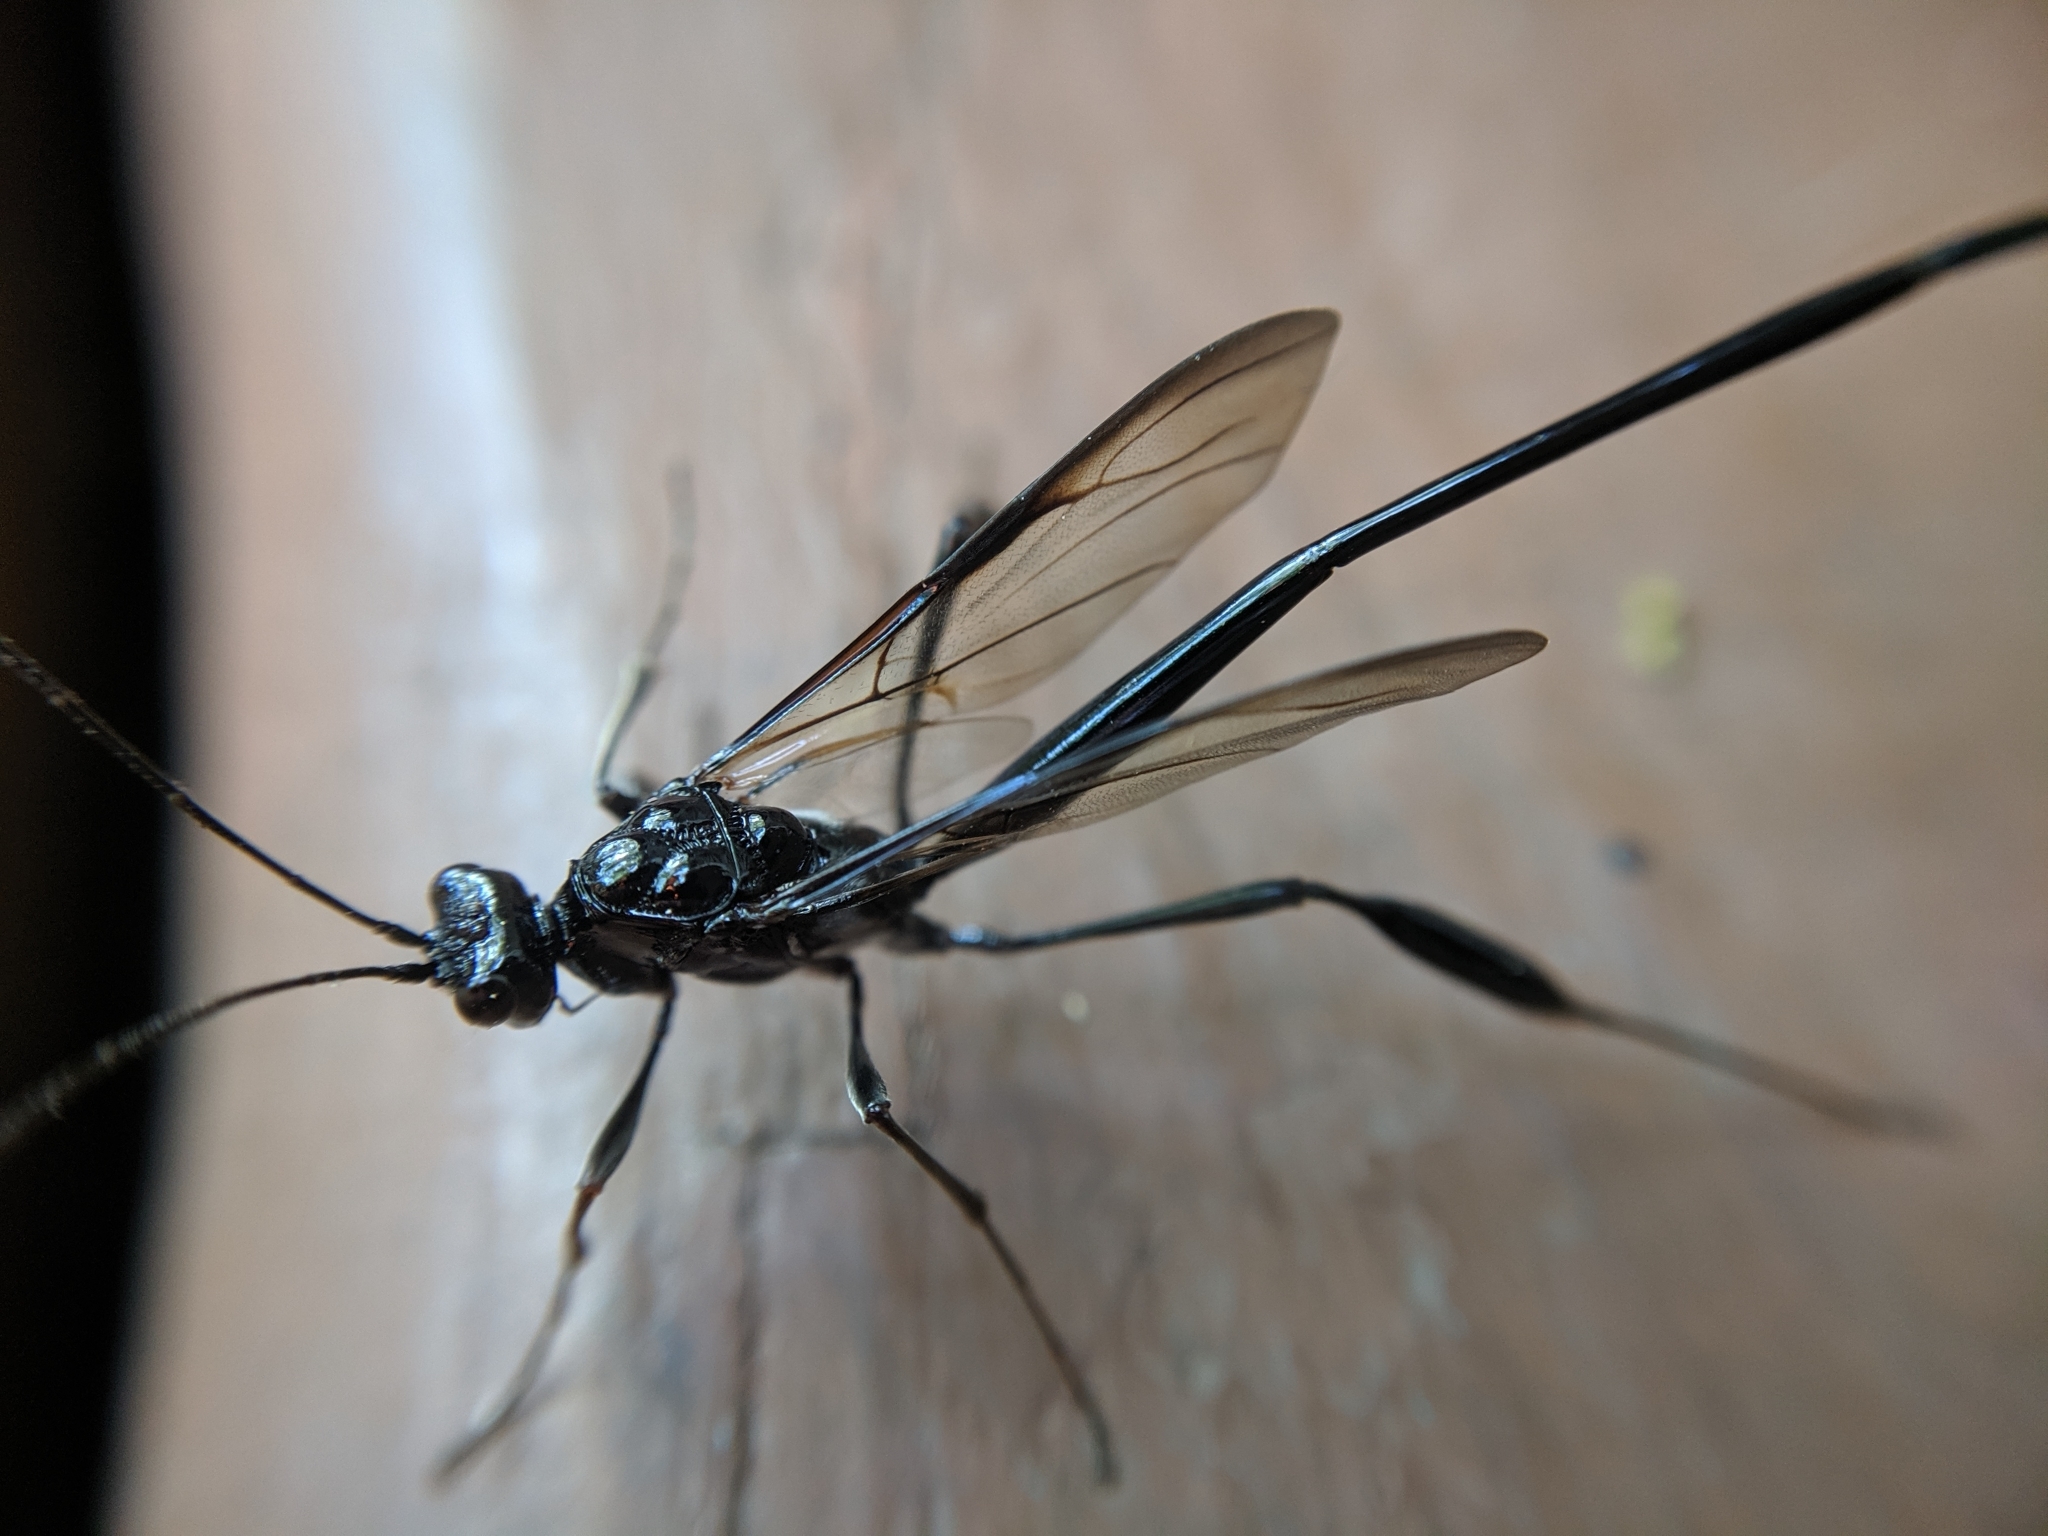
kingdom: Animalia
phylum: Arthropoda
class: Insecta
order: Hymenoptera
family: Pelecinidae
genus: Pelecinus
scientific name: Pelecinus polyturator
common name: American pelecinid wasp
